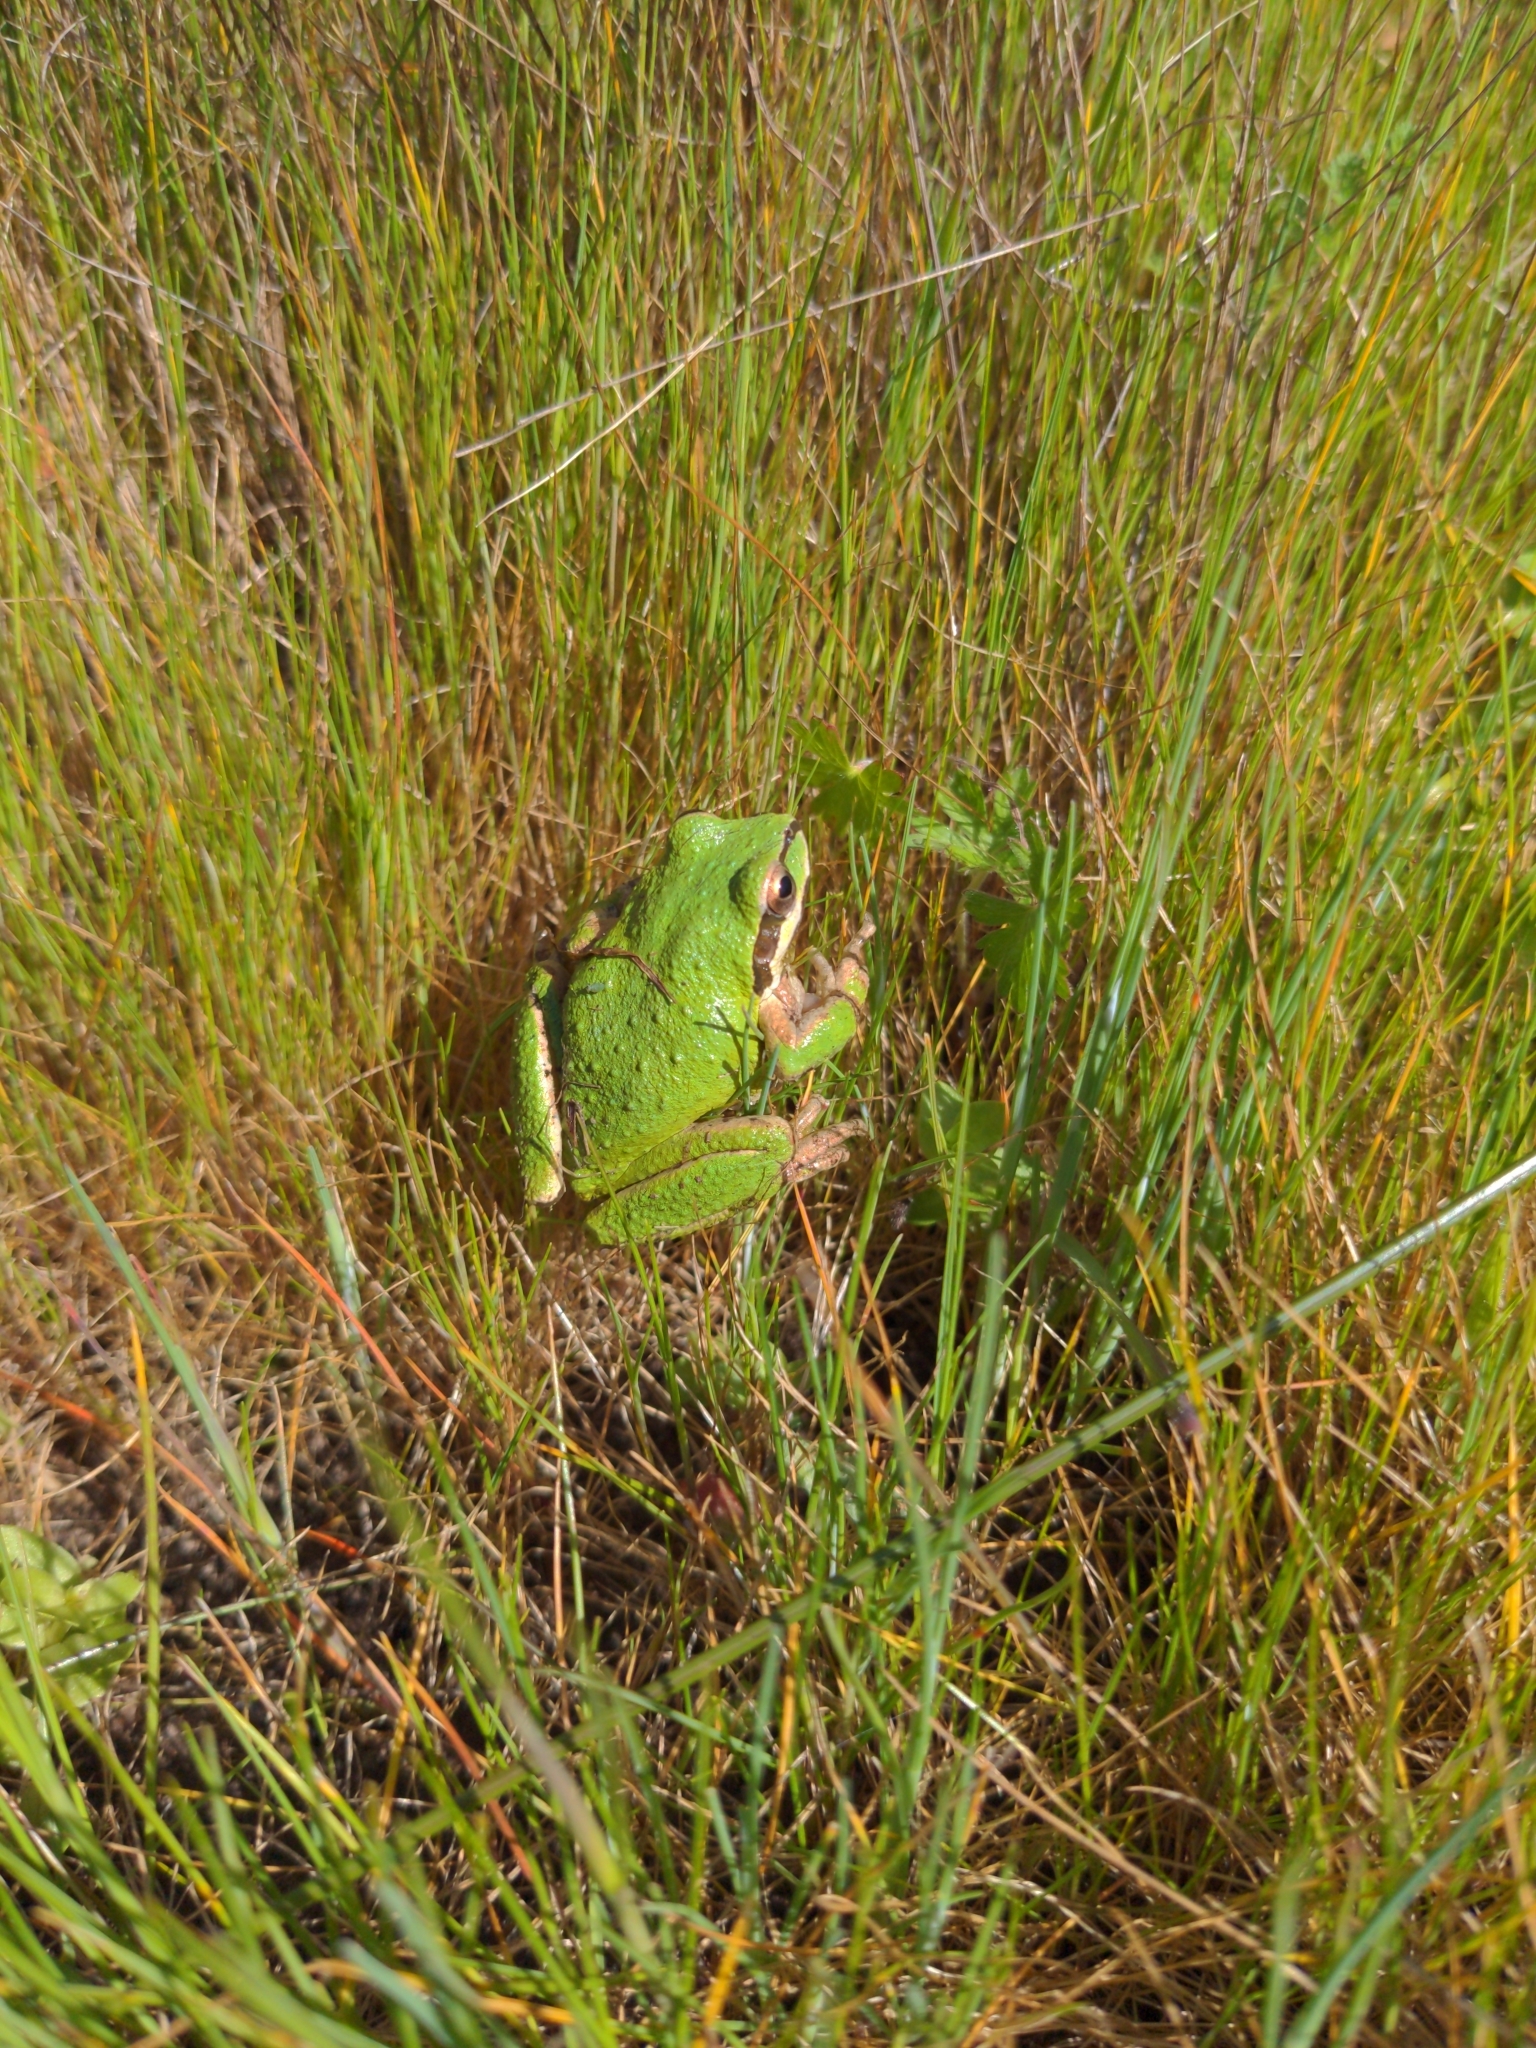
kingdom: Animalia
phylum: Chordata
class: Amphibia
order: Anura
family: Hylidae
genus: Pseudacris
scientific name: Pseudacris regilla
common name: Pacific chorus frog
